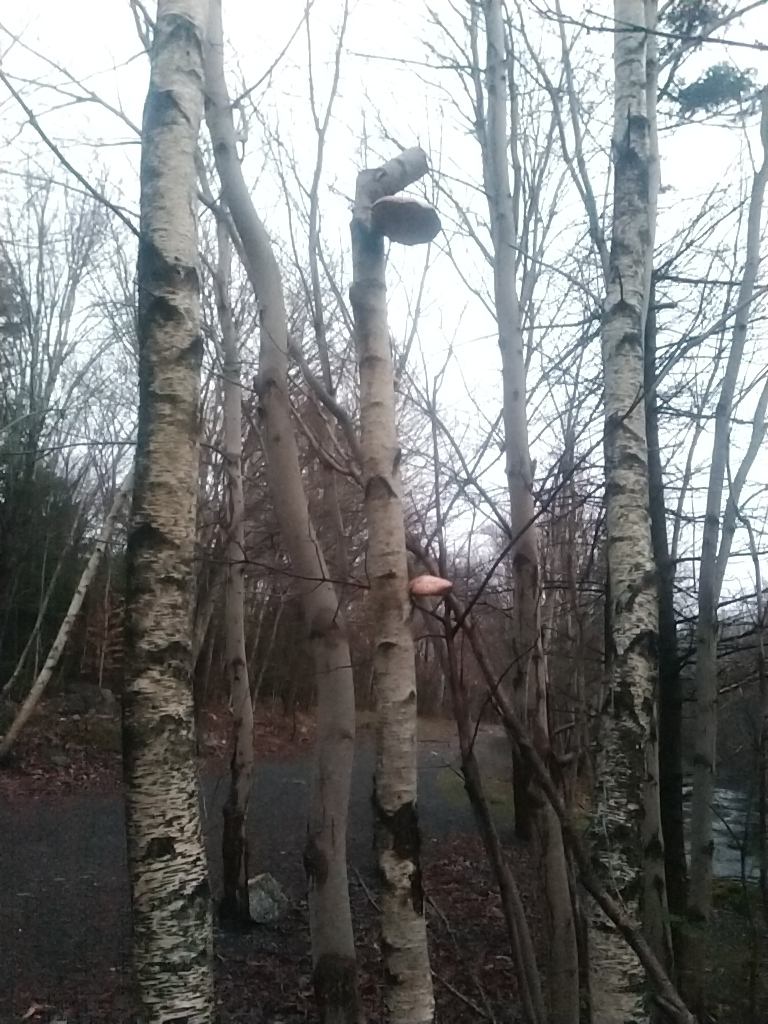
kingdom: Fungi
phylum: Basidiomycota
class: Agaricomycetes
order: Polyporales
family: Fomitopsidaceae
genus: Fomitopsis
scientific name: Fomitopsis betulina
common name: Birch polypore
